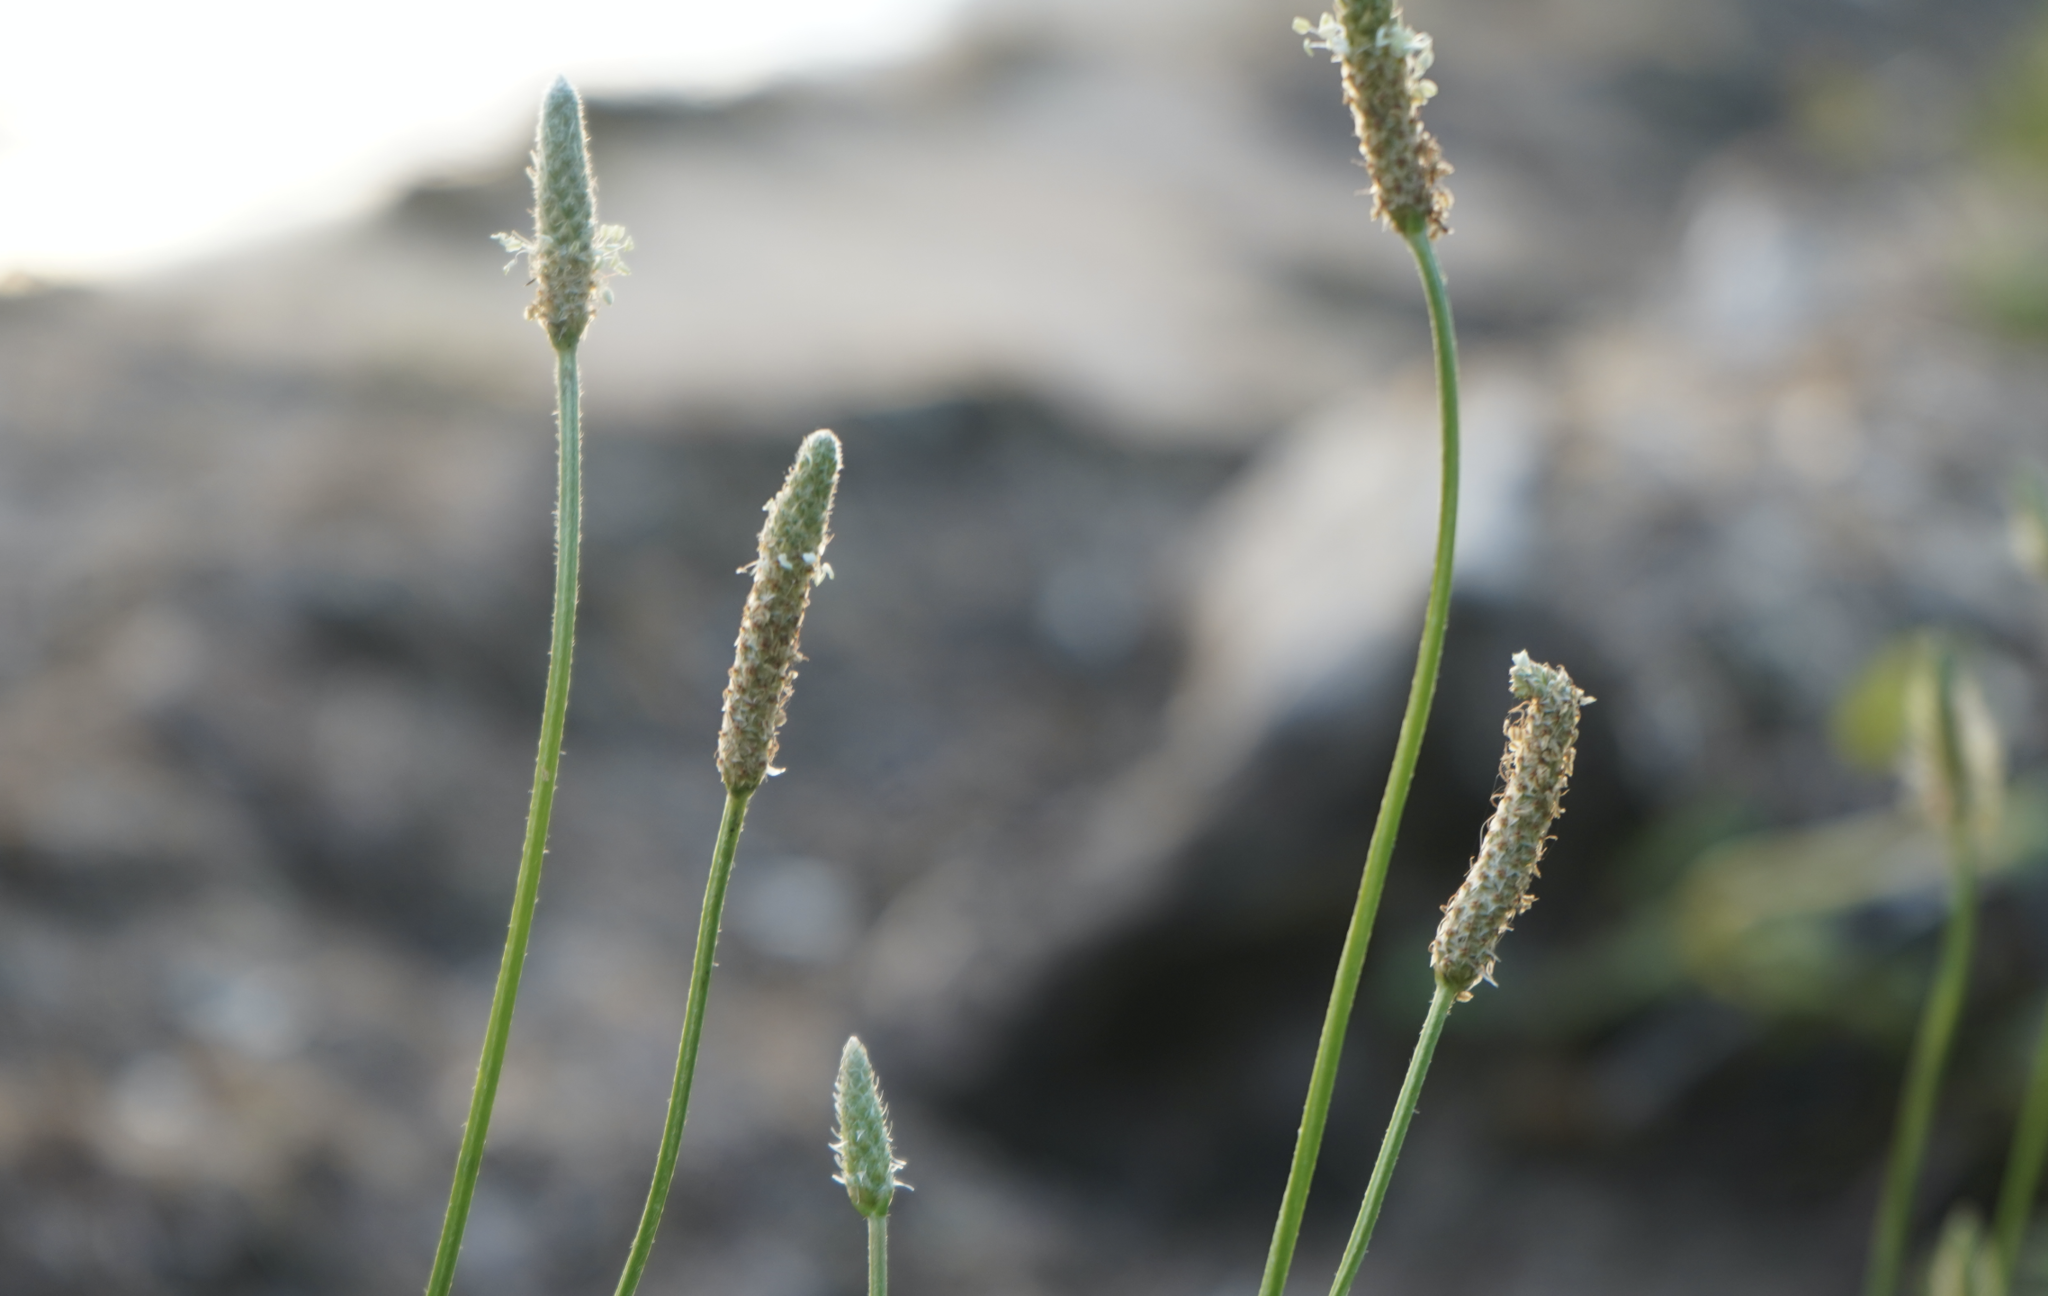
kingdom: Plantae
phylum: Tracheophyta
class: Magnoliopsida
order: Lamiales
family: Plantaginaceae
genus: Plantago
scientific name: Plantago lanceolata
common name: Ribwort plantain
